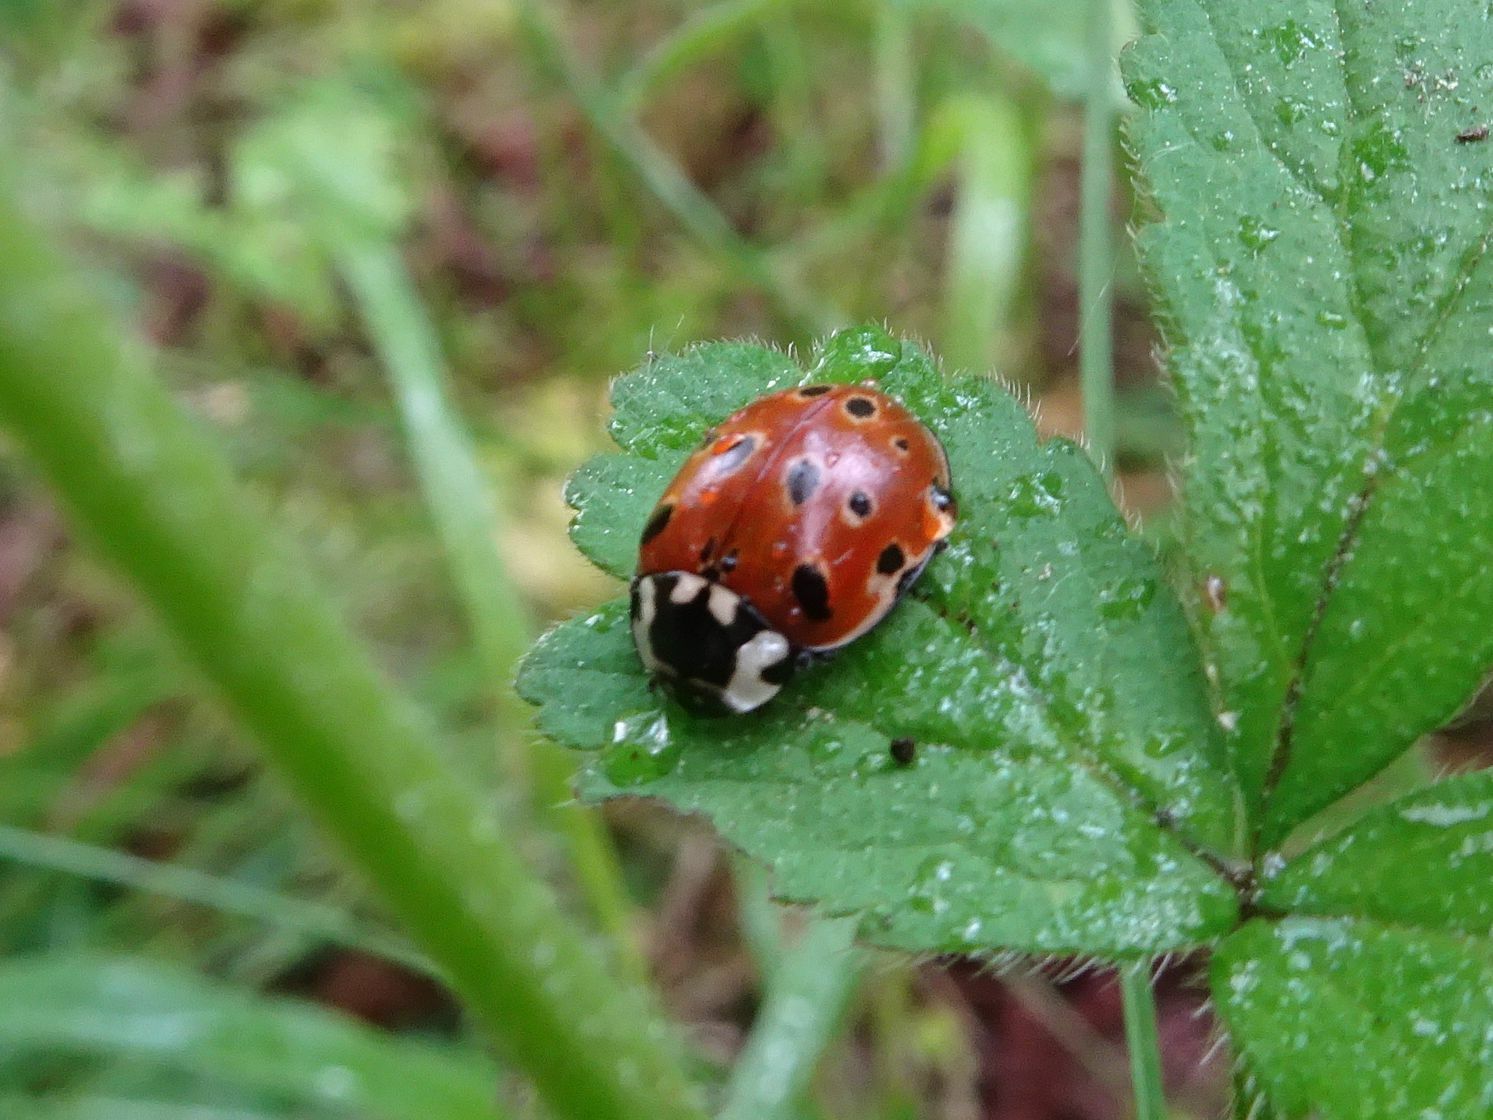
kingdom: Animalia
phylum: Arthropoda
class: Insecta
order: Coleoptera
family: Coccinellidae
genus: Anatis
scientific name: Anatis ocellata
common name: Eyed ladybird
